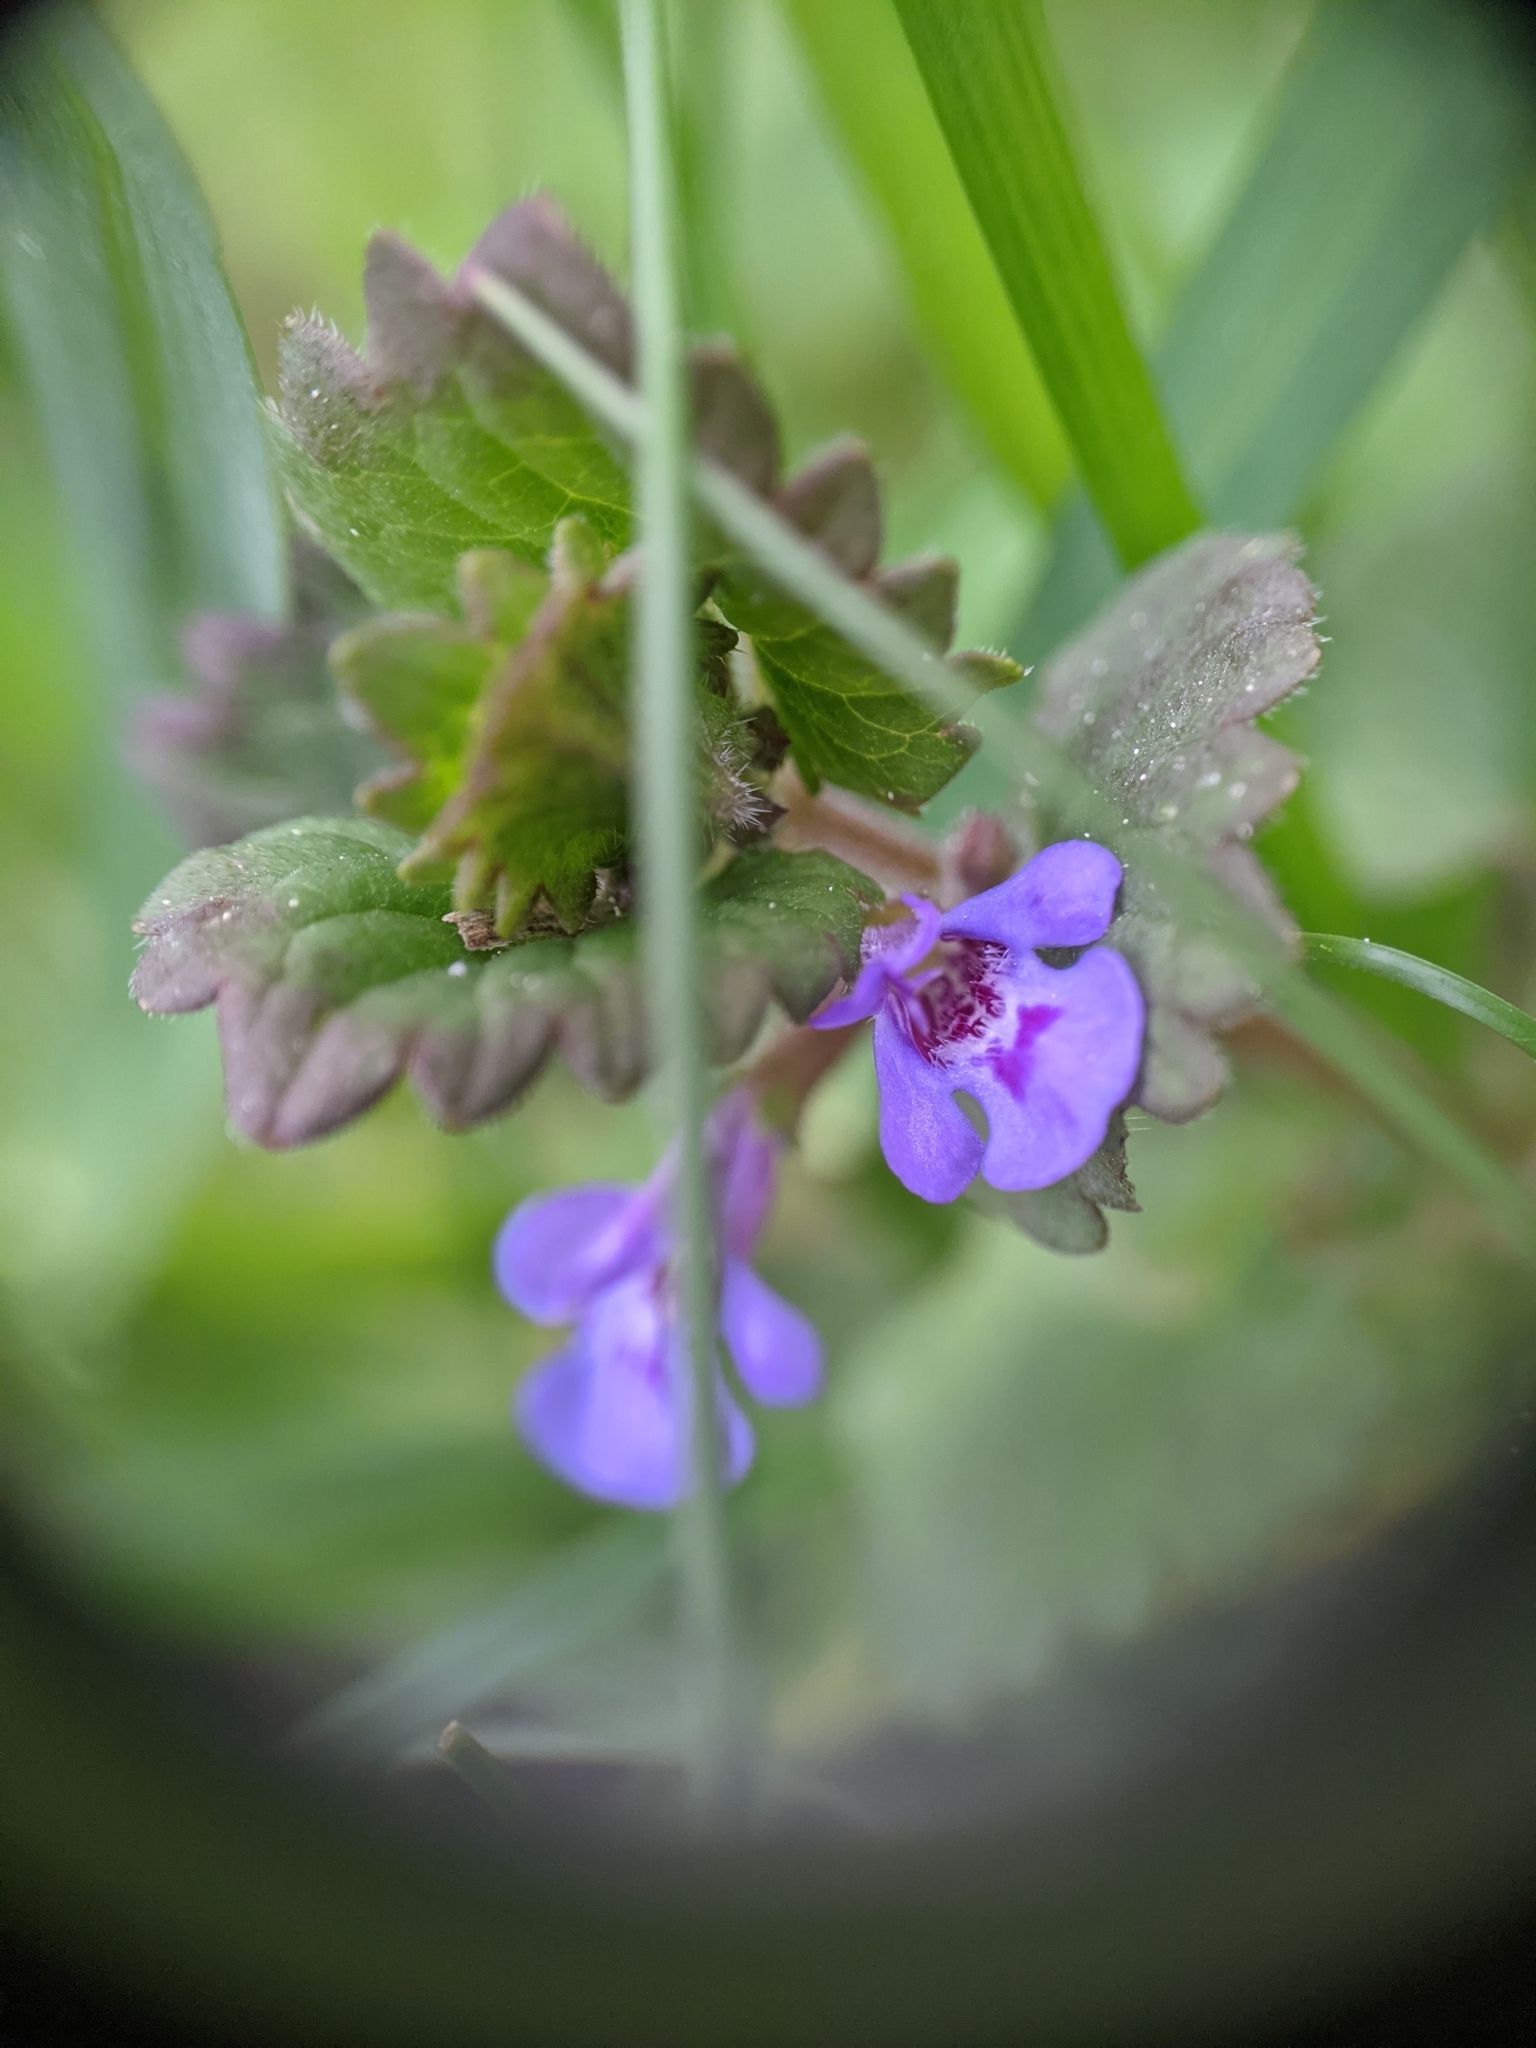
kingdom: Plantae
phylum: Tracheophyta
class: Magnoliopsida
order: Lamiales
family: Lamiaceae
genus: Glechoma
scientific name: Glechoma hederacea
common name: Ground ivy
